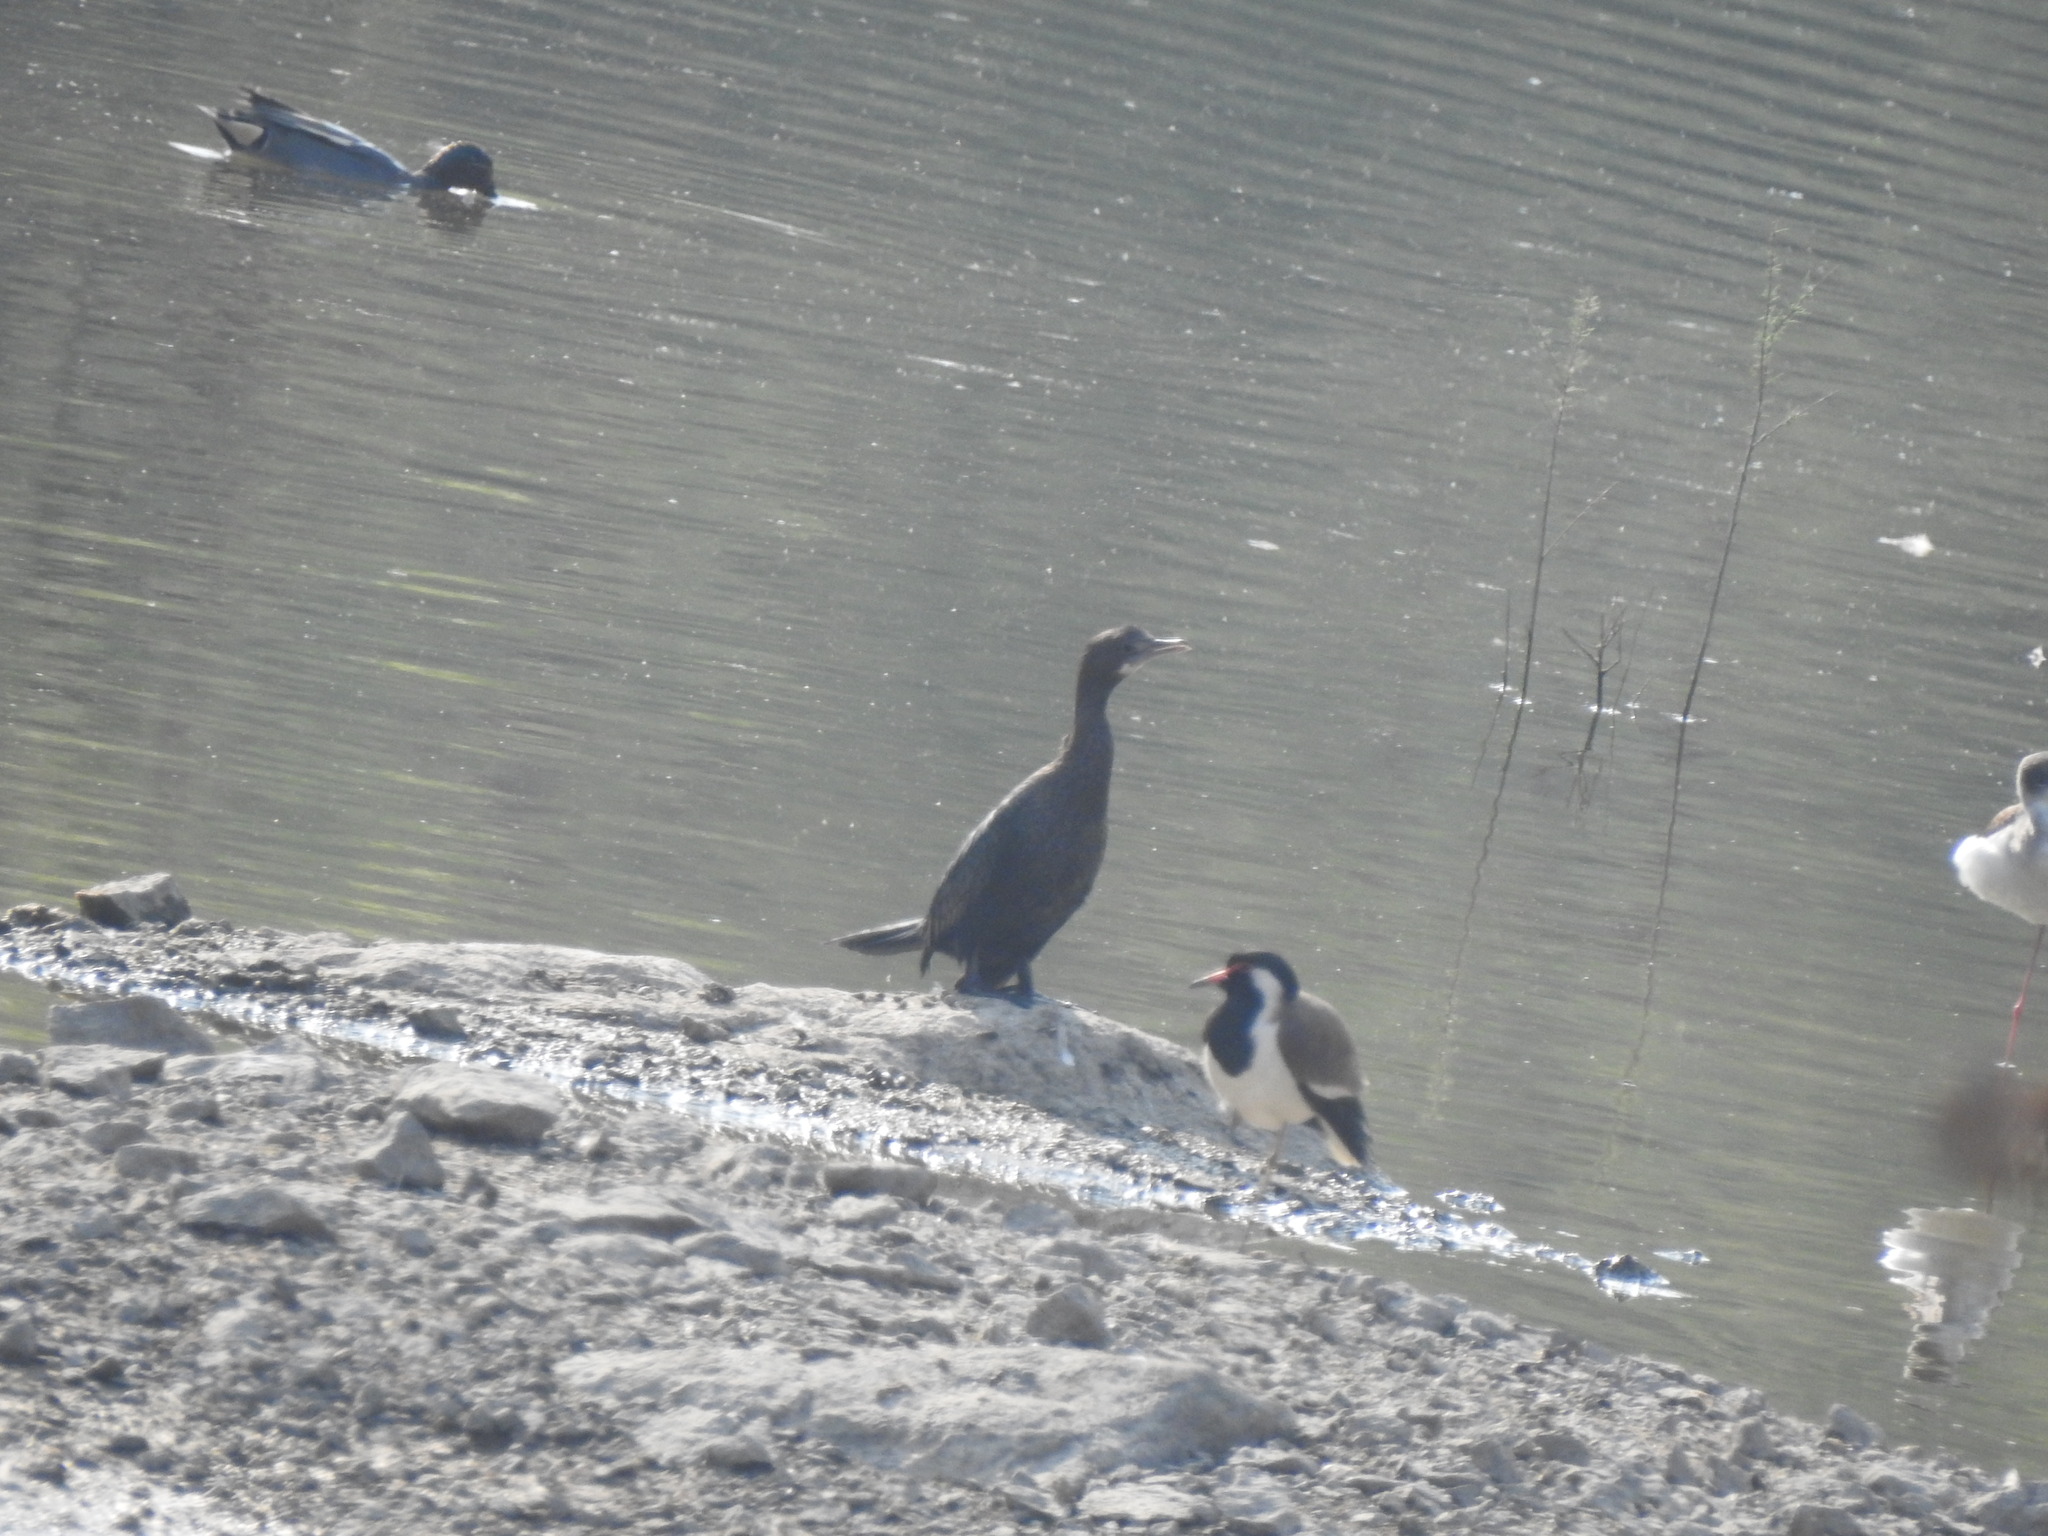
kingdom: Animalia
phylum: Chordata
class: Aves
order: Suliformes
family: Phalacrocoracidae
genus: Microcarbo
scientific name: Microcarbo niger
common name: Little cormorant
